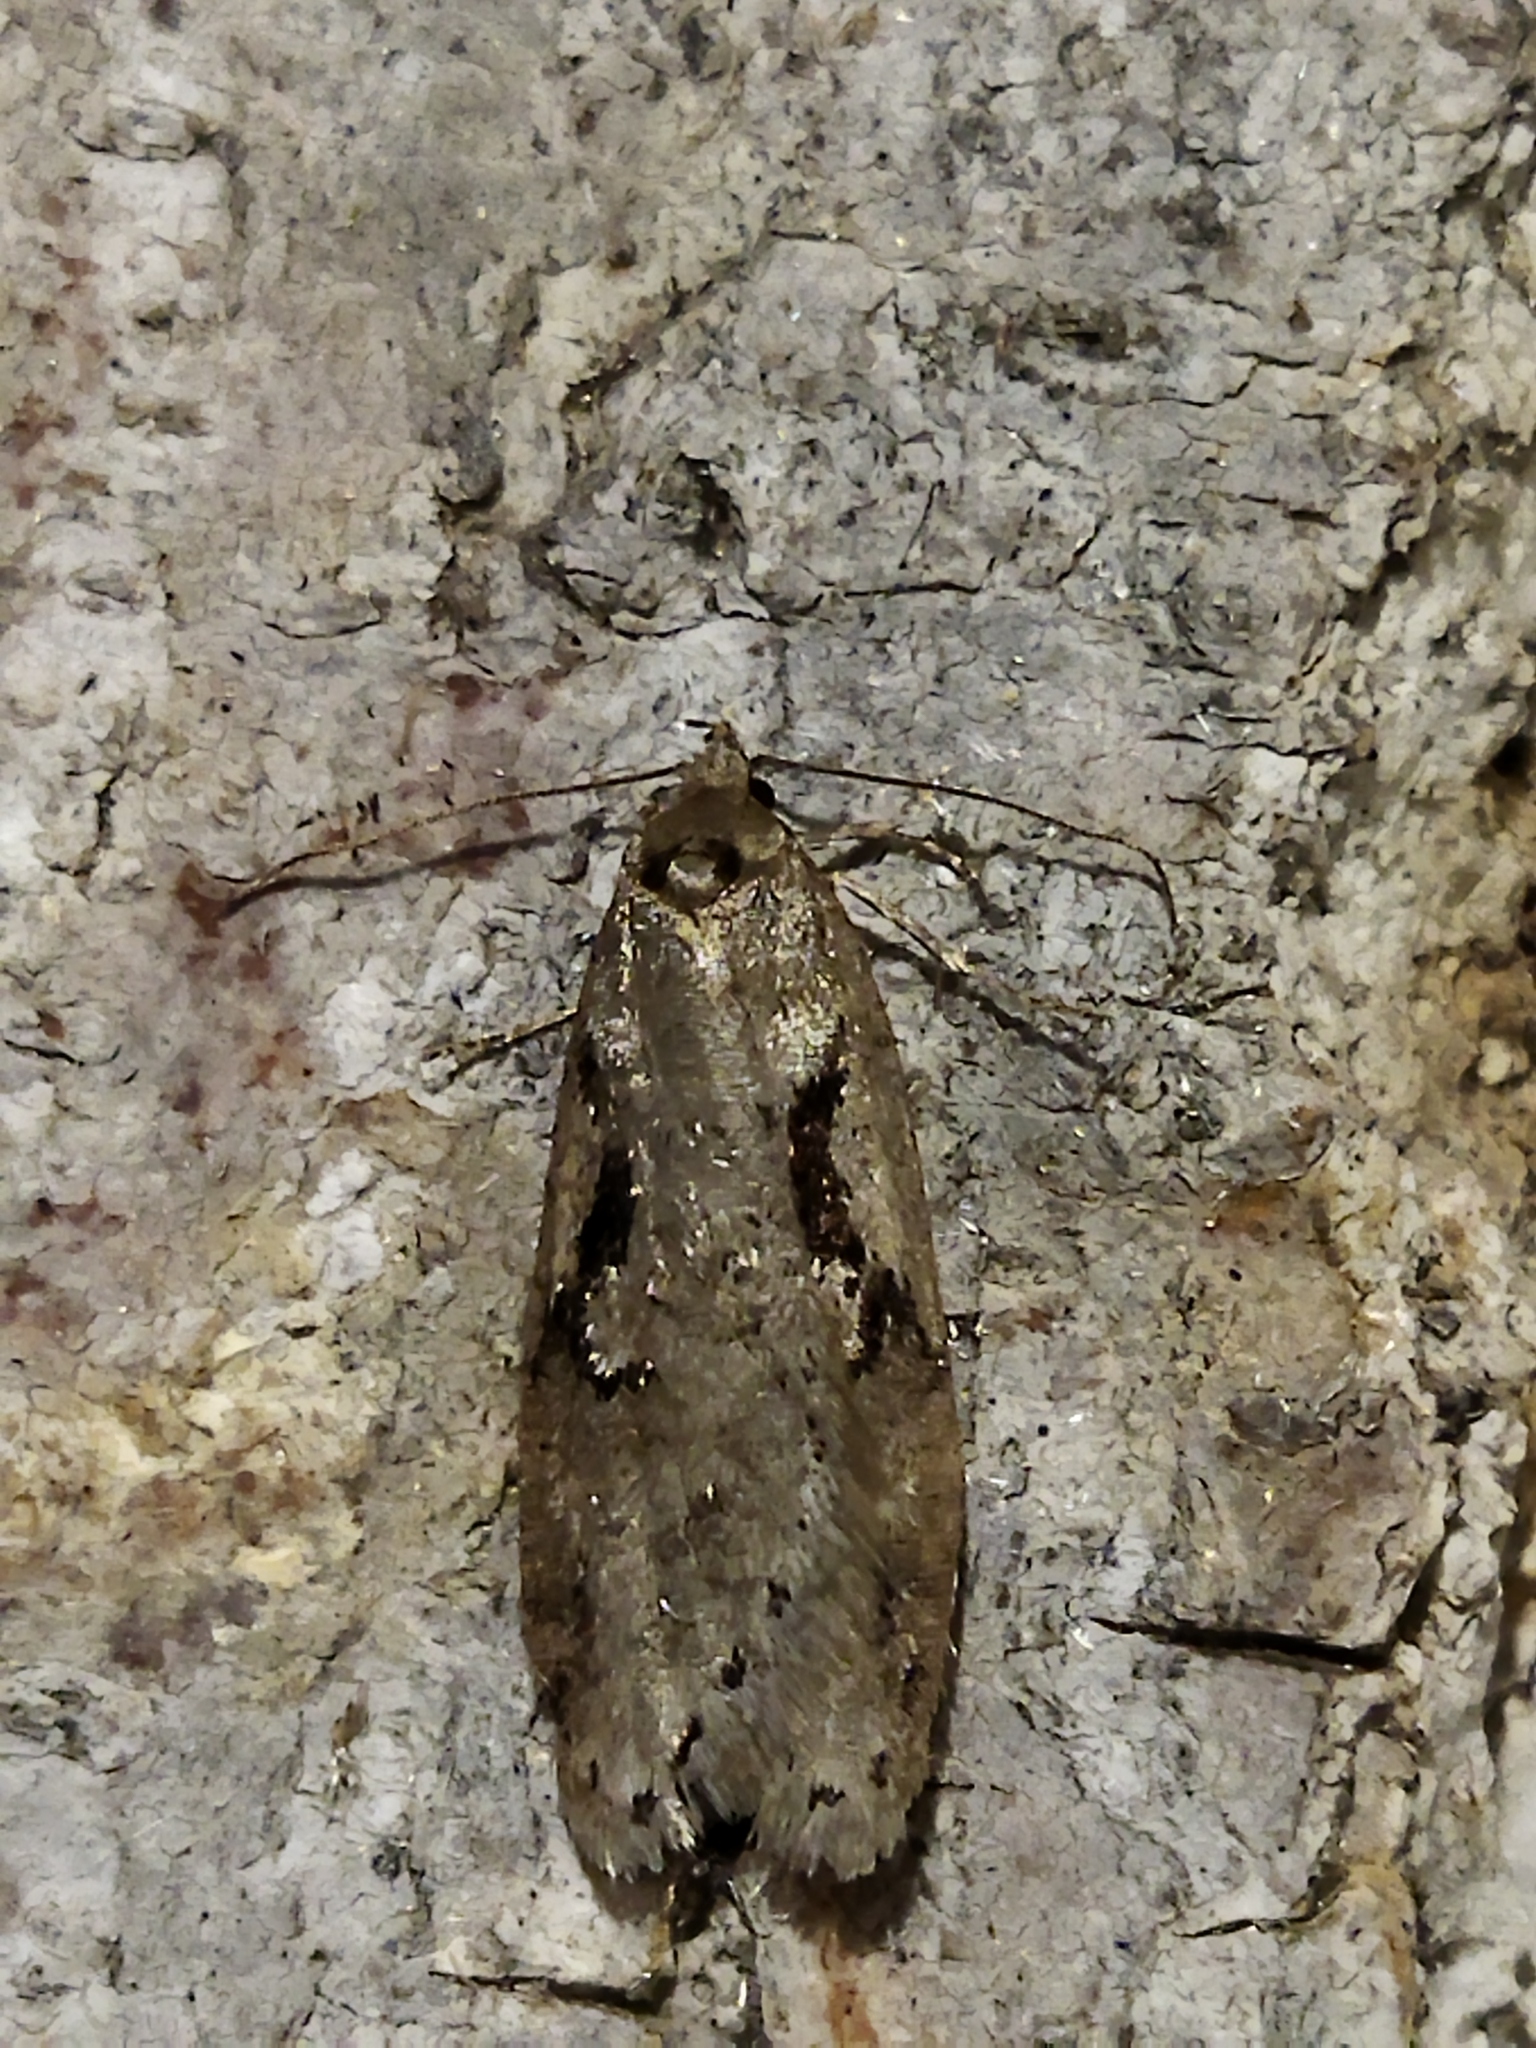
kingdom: Animalia
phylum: Arthropoda
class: Insecta
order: Lepidoptera
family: Depressariidae
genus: Semioscopis
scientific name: Semioscopis steinkellneriana
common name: Dawn flat-body
